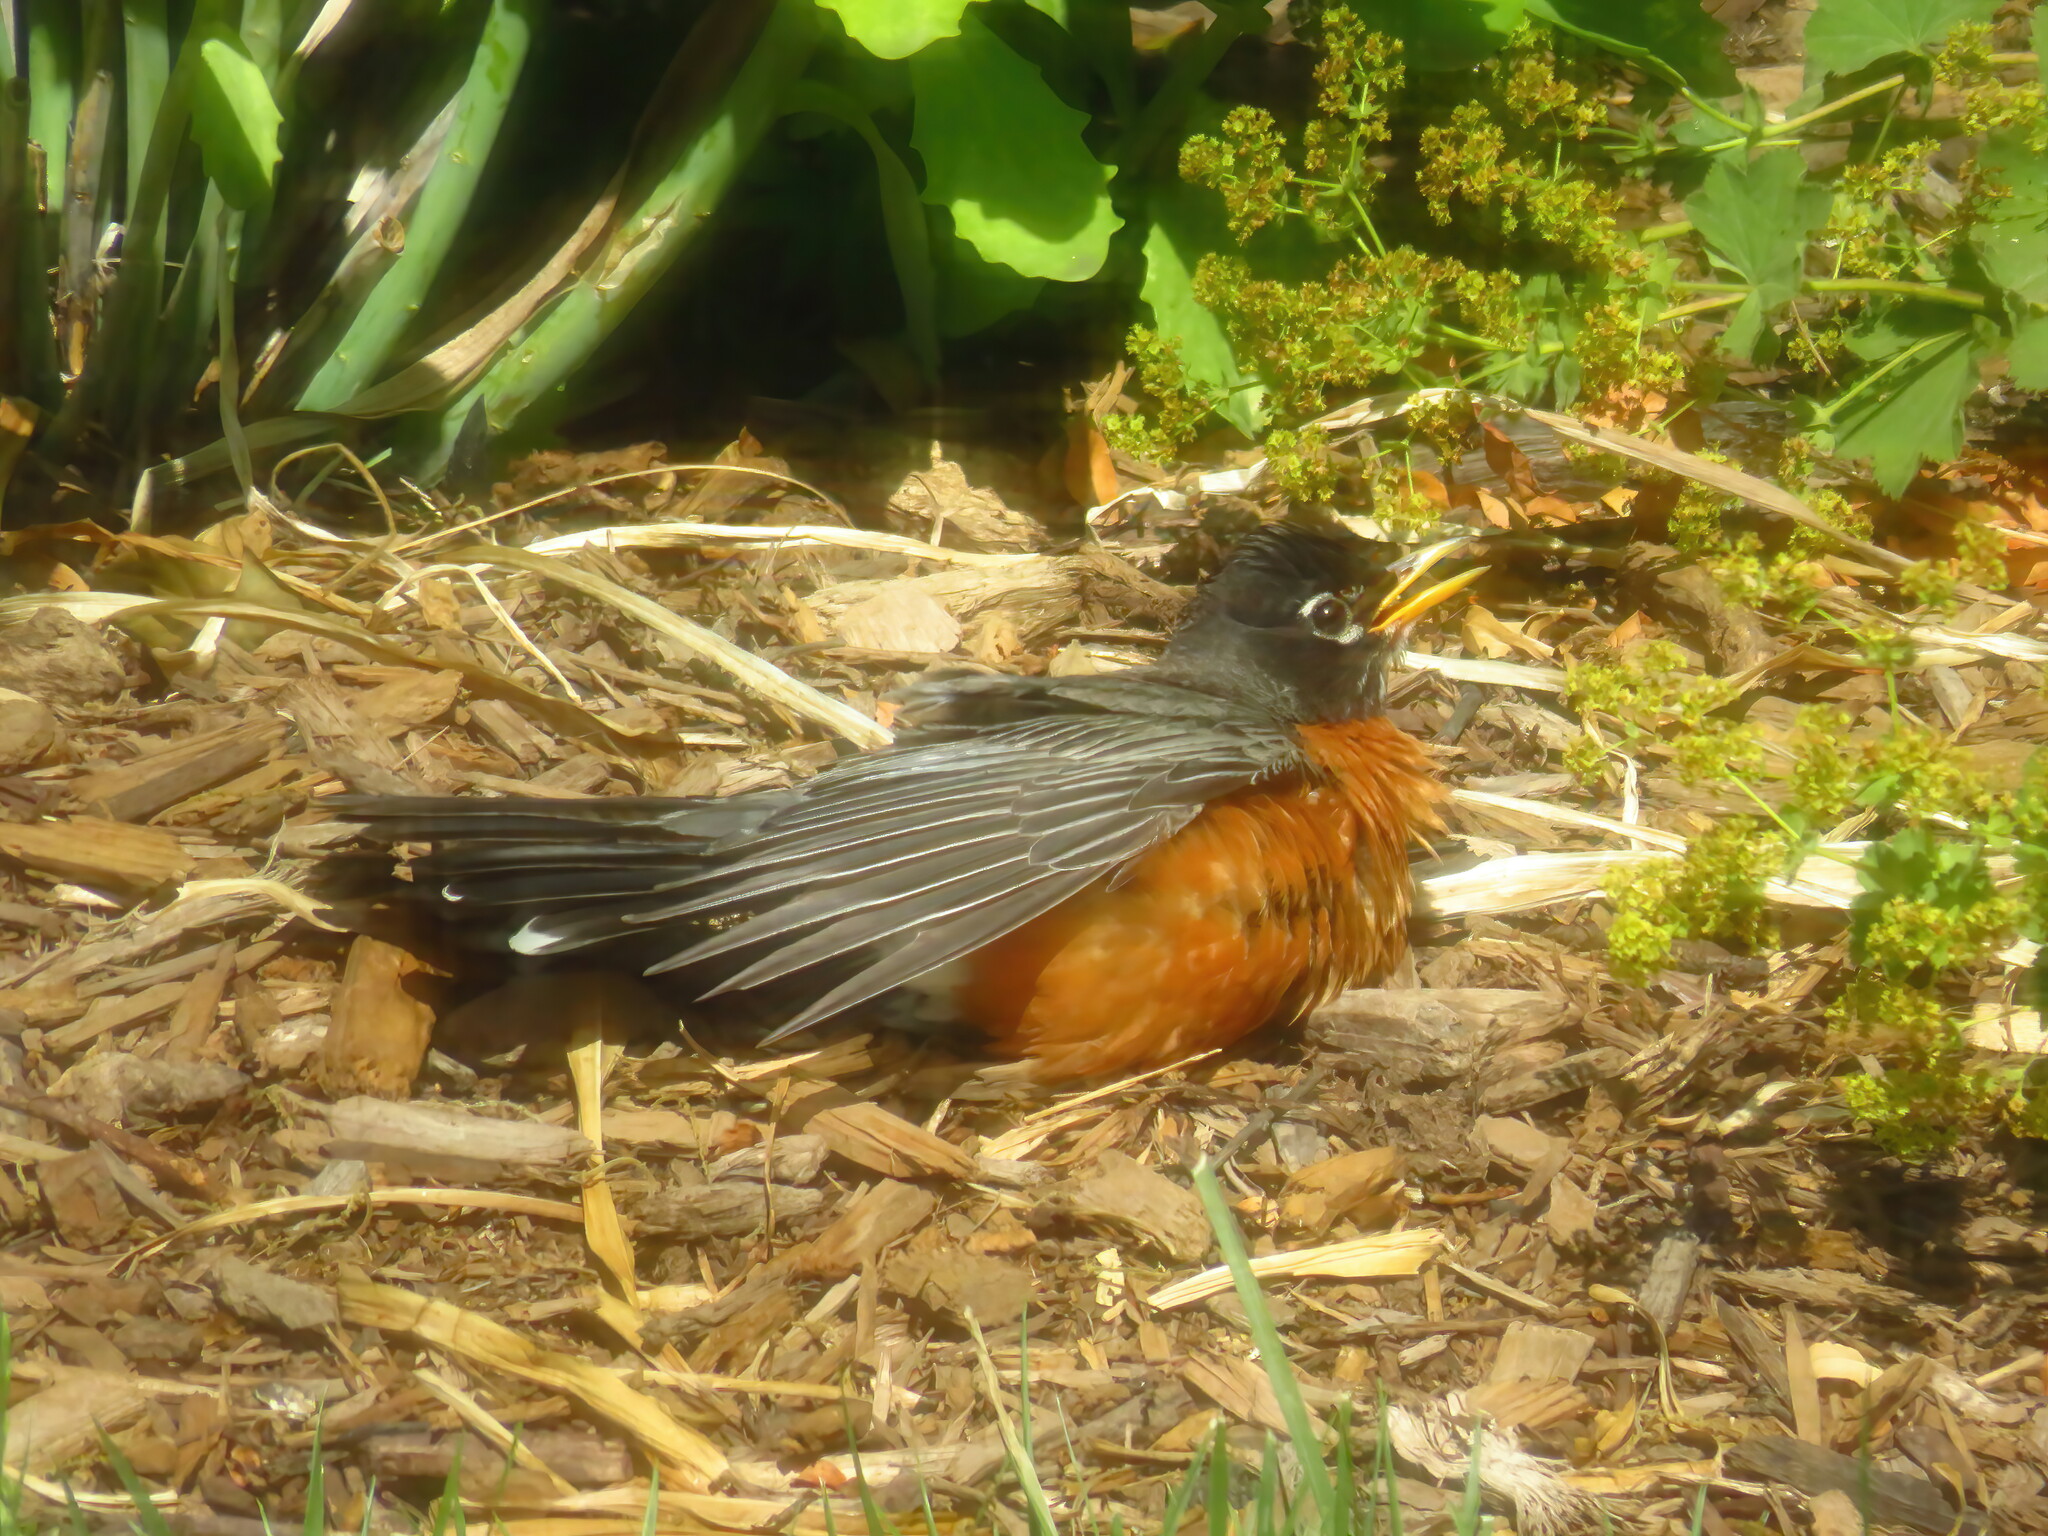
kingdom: Animalia
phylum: Chordata
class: Aves
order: Passeriformes
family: Turdidae
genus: Turdus
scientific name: Turdus migratorius
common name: American robin
